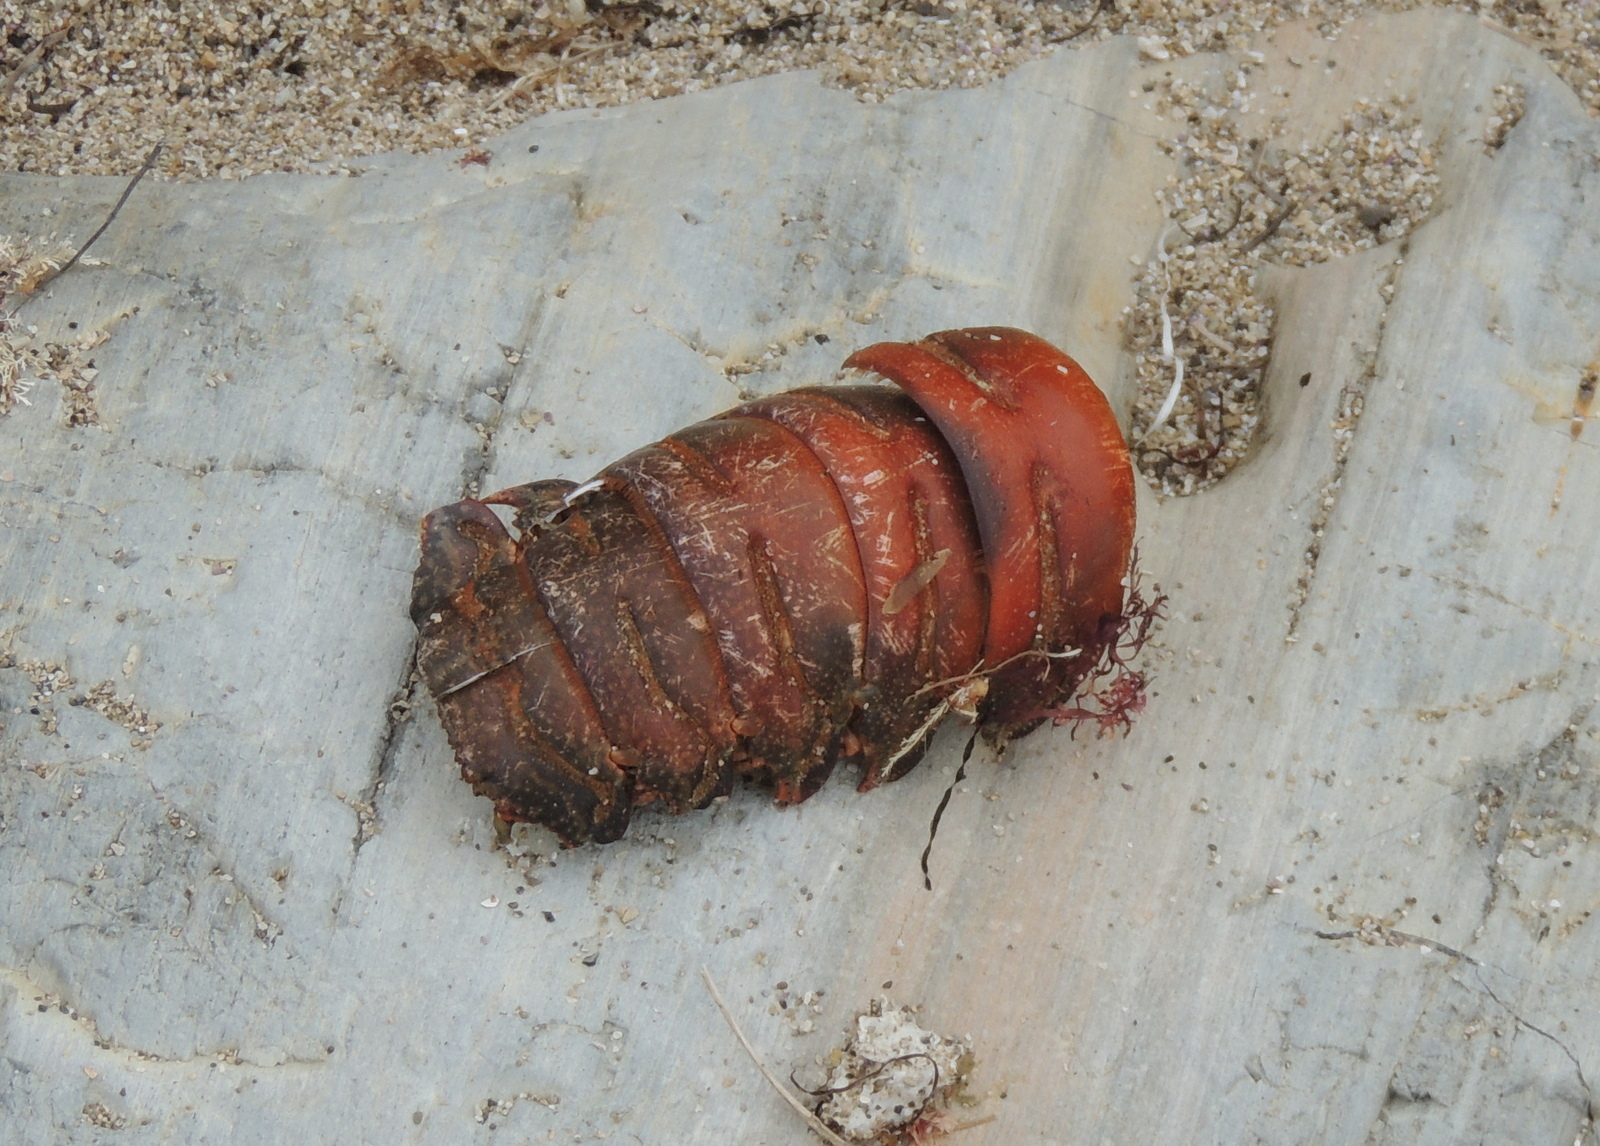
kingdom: Animalia
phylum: Arthropoda
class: Malacostraca
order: Decapoda
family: Palinuridae
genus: Panulirus
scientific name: Panulirus interruptus
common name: California spiny lobster
